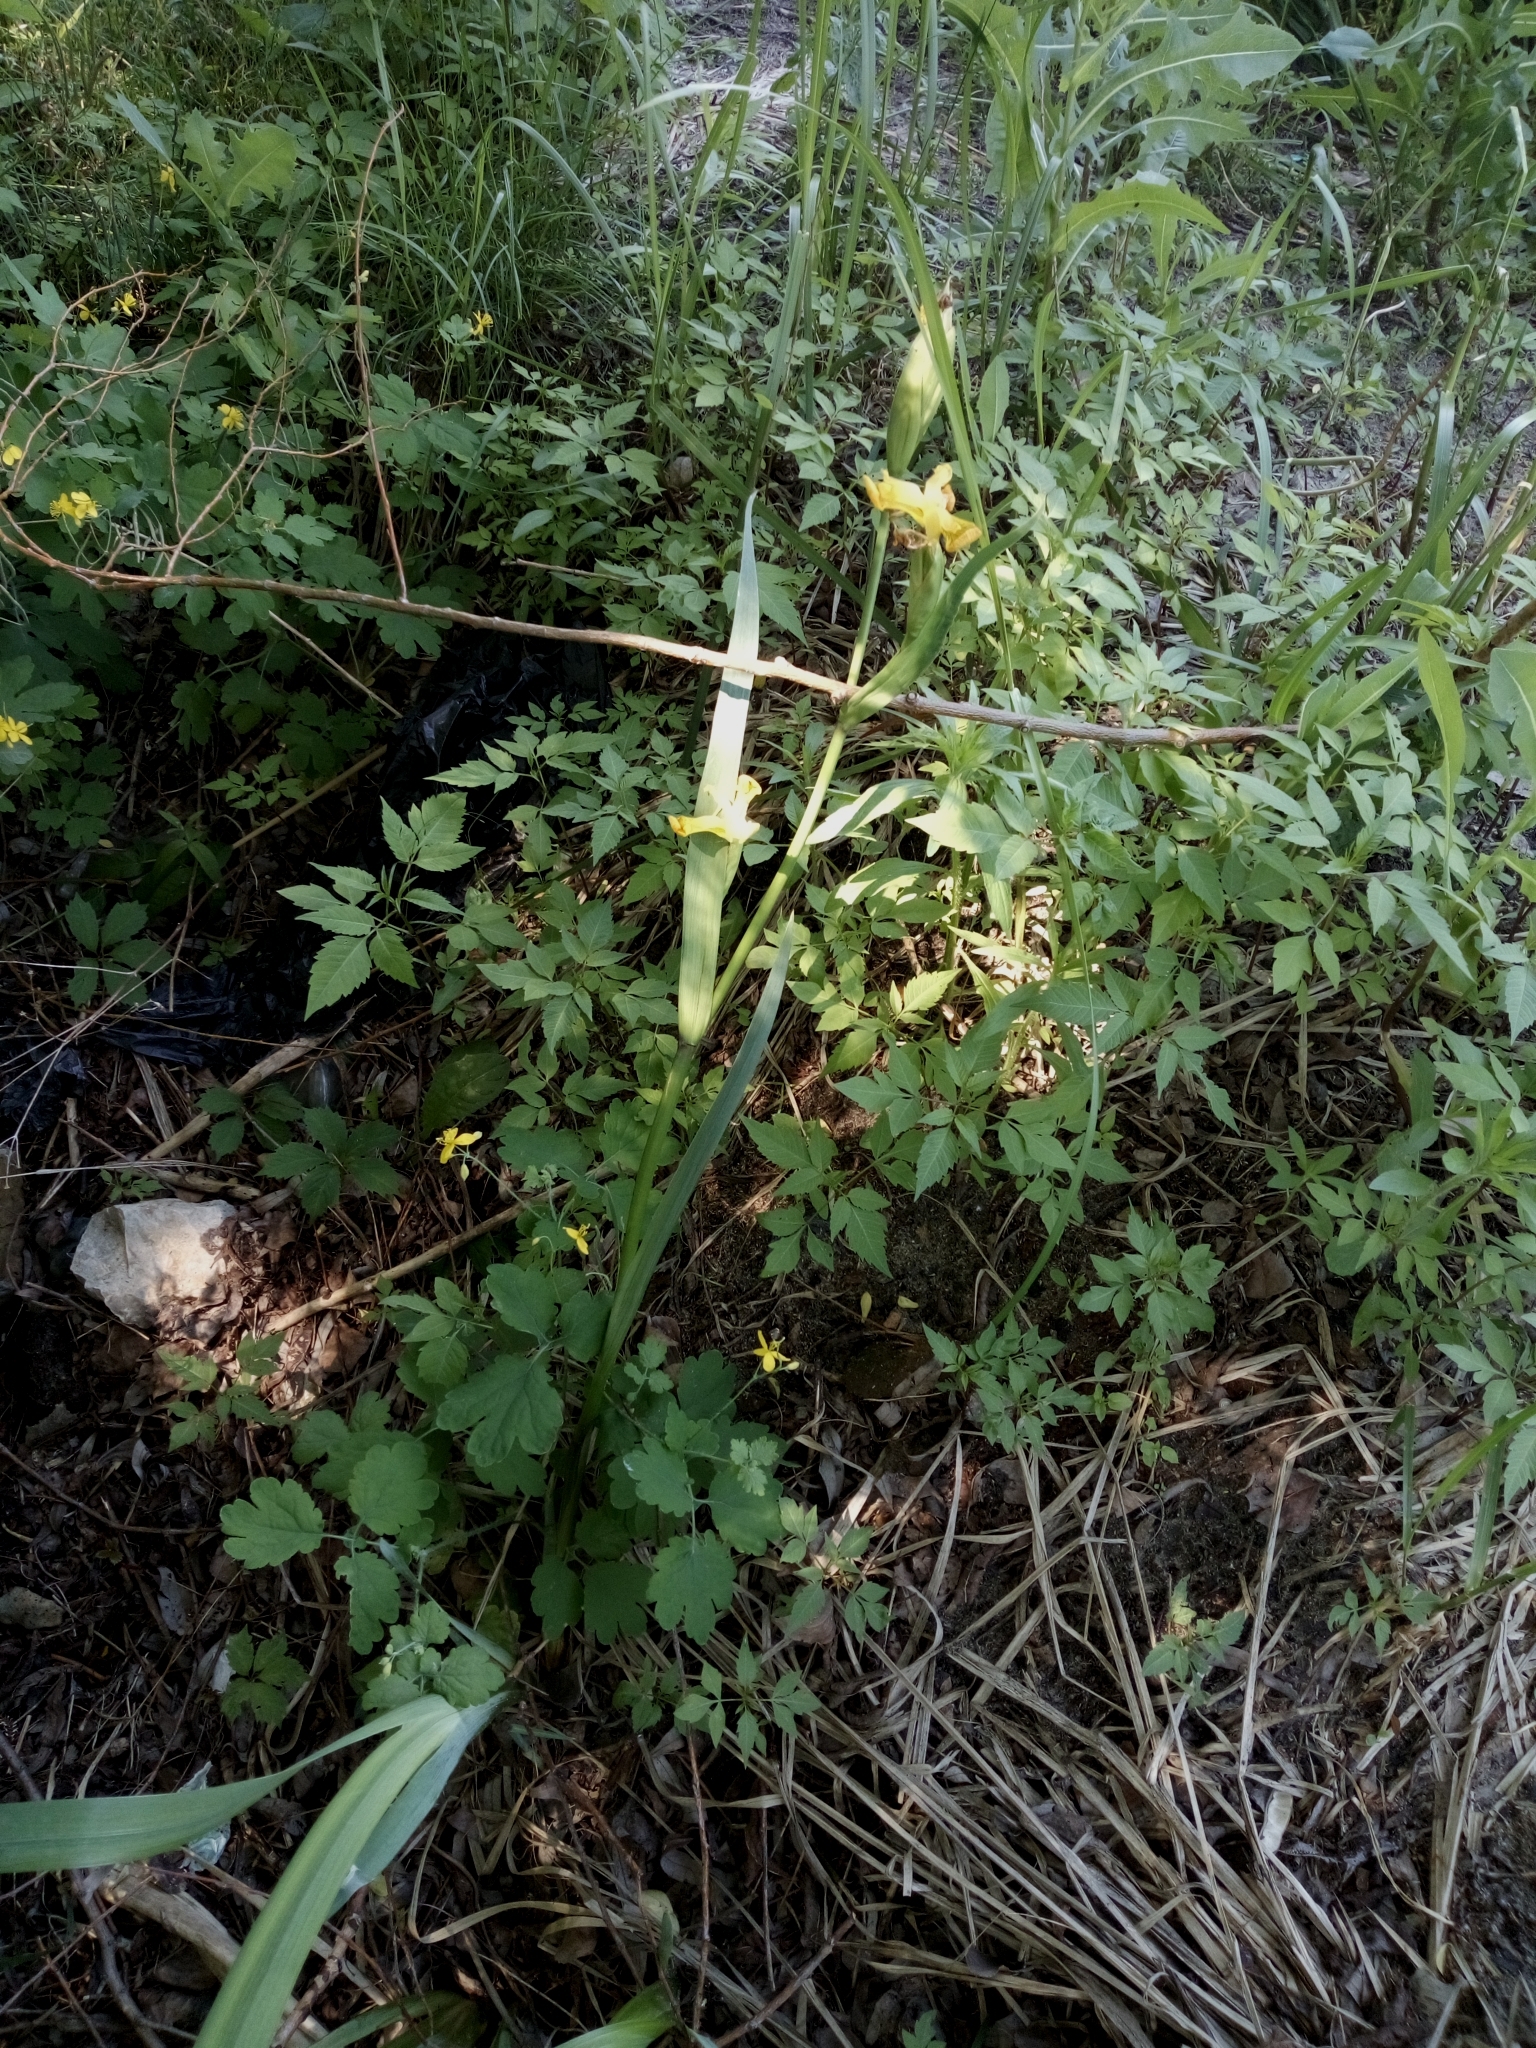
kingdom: Plantae
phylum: Tracheophyta
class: Liliopsida
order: Asparagales
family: Iridaceae
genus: Iris
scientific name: Iris pseudacorus
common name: Yellow flag
